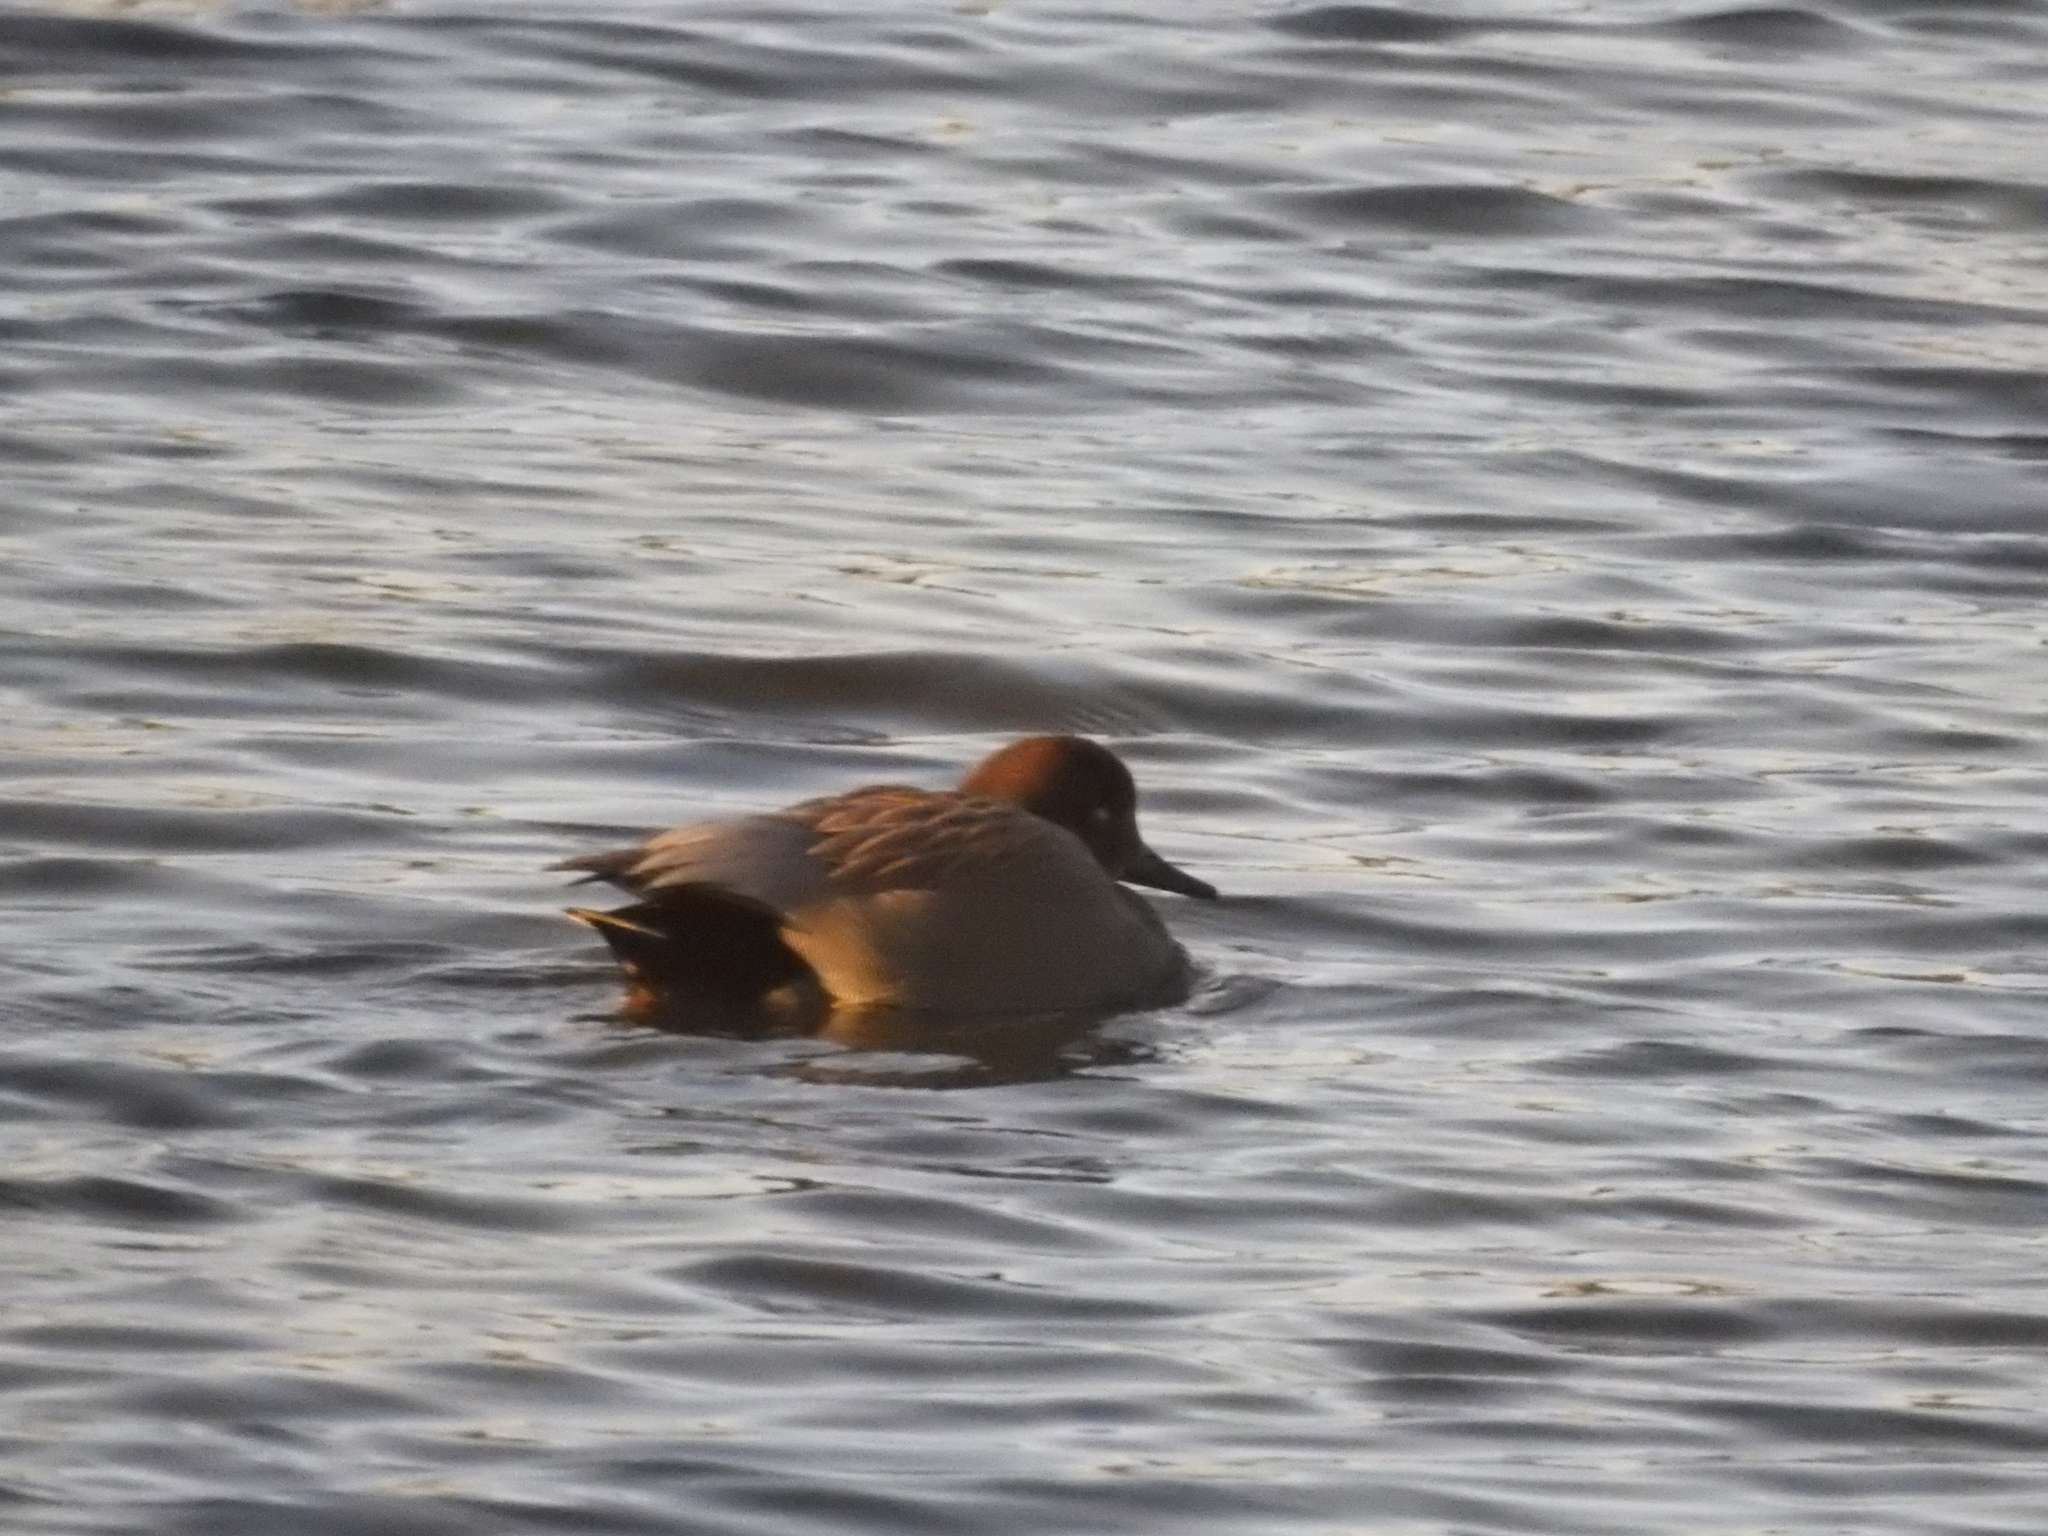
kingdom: Animalia
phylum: Chordata
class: Aves
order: Anseriformes
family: Anatidae
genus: Mareca
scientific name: Mareca strepera
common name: Gadwall
